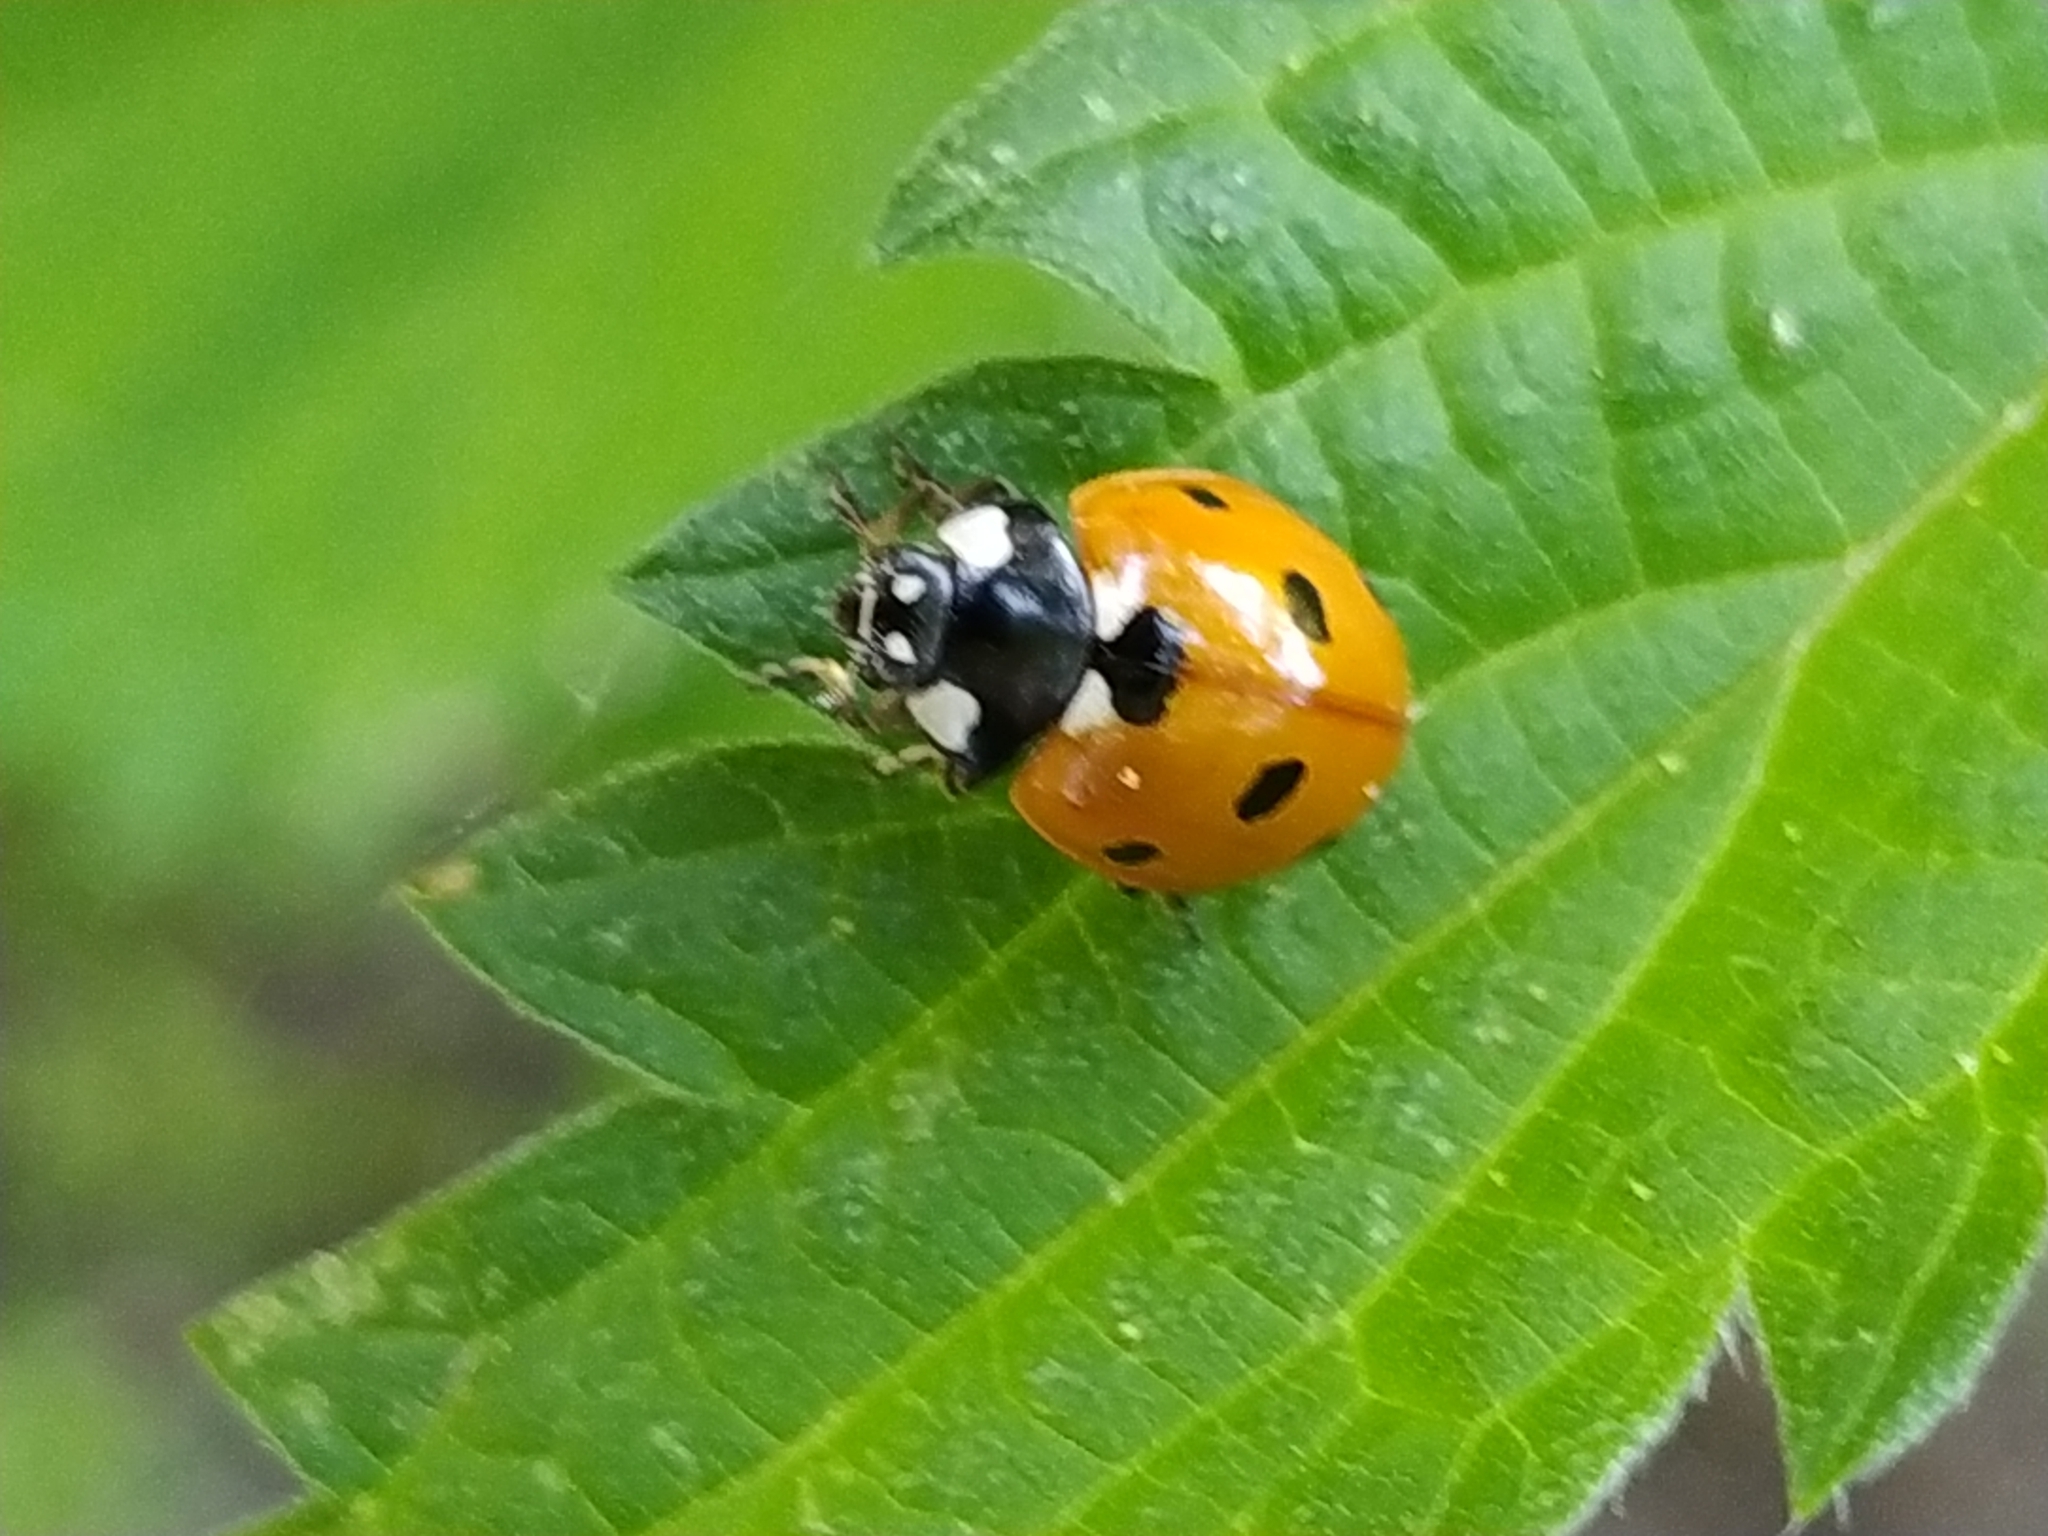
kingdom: Animalia
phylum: Arthropoda
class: Insecta
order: Coleoptera
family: Coccinellidae
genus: Coccinella
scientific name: Coccinella septempunctata
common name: Sevenspotted lady beetle
